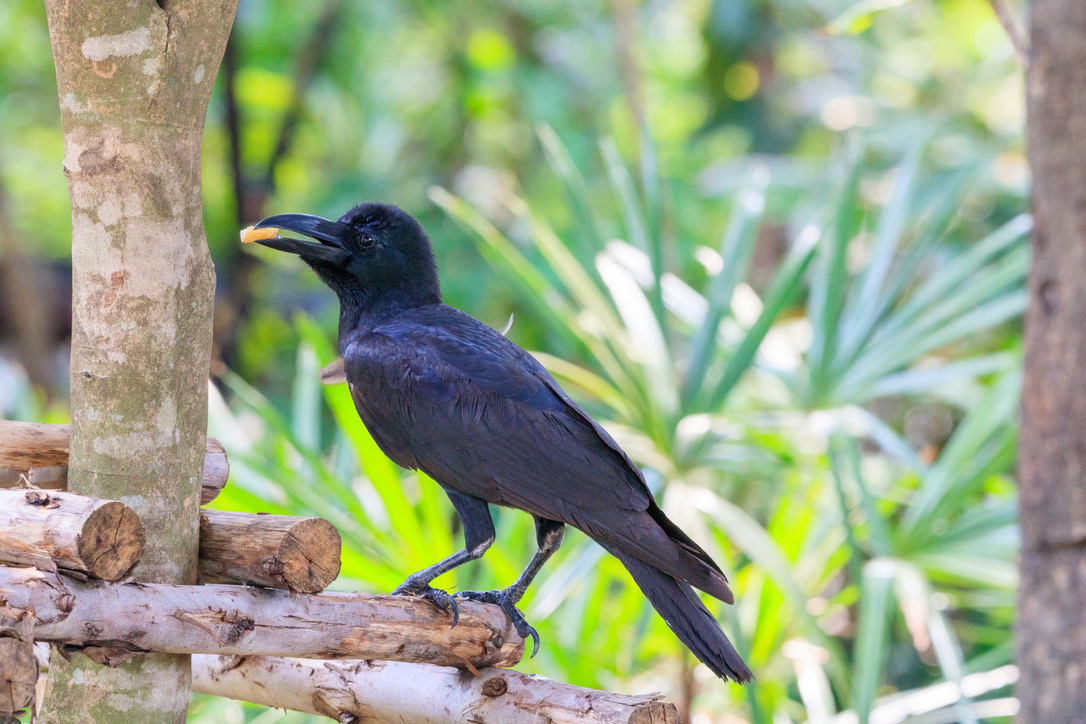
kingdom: Animalia
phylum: Chordata
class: Aves
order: Passeriformes
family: Corvidae
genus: Corvus
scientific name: Corvus macrorhynchos
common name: Large-billed crow
